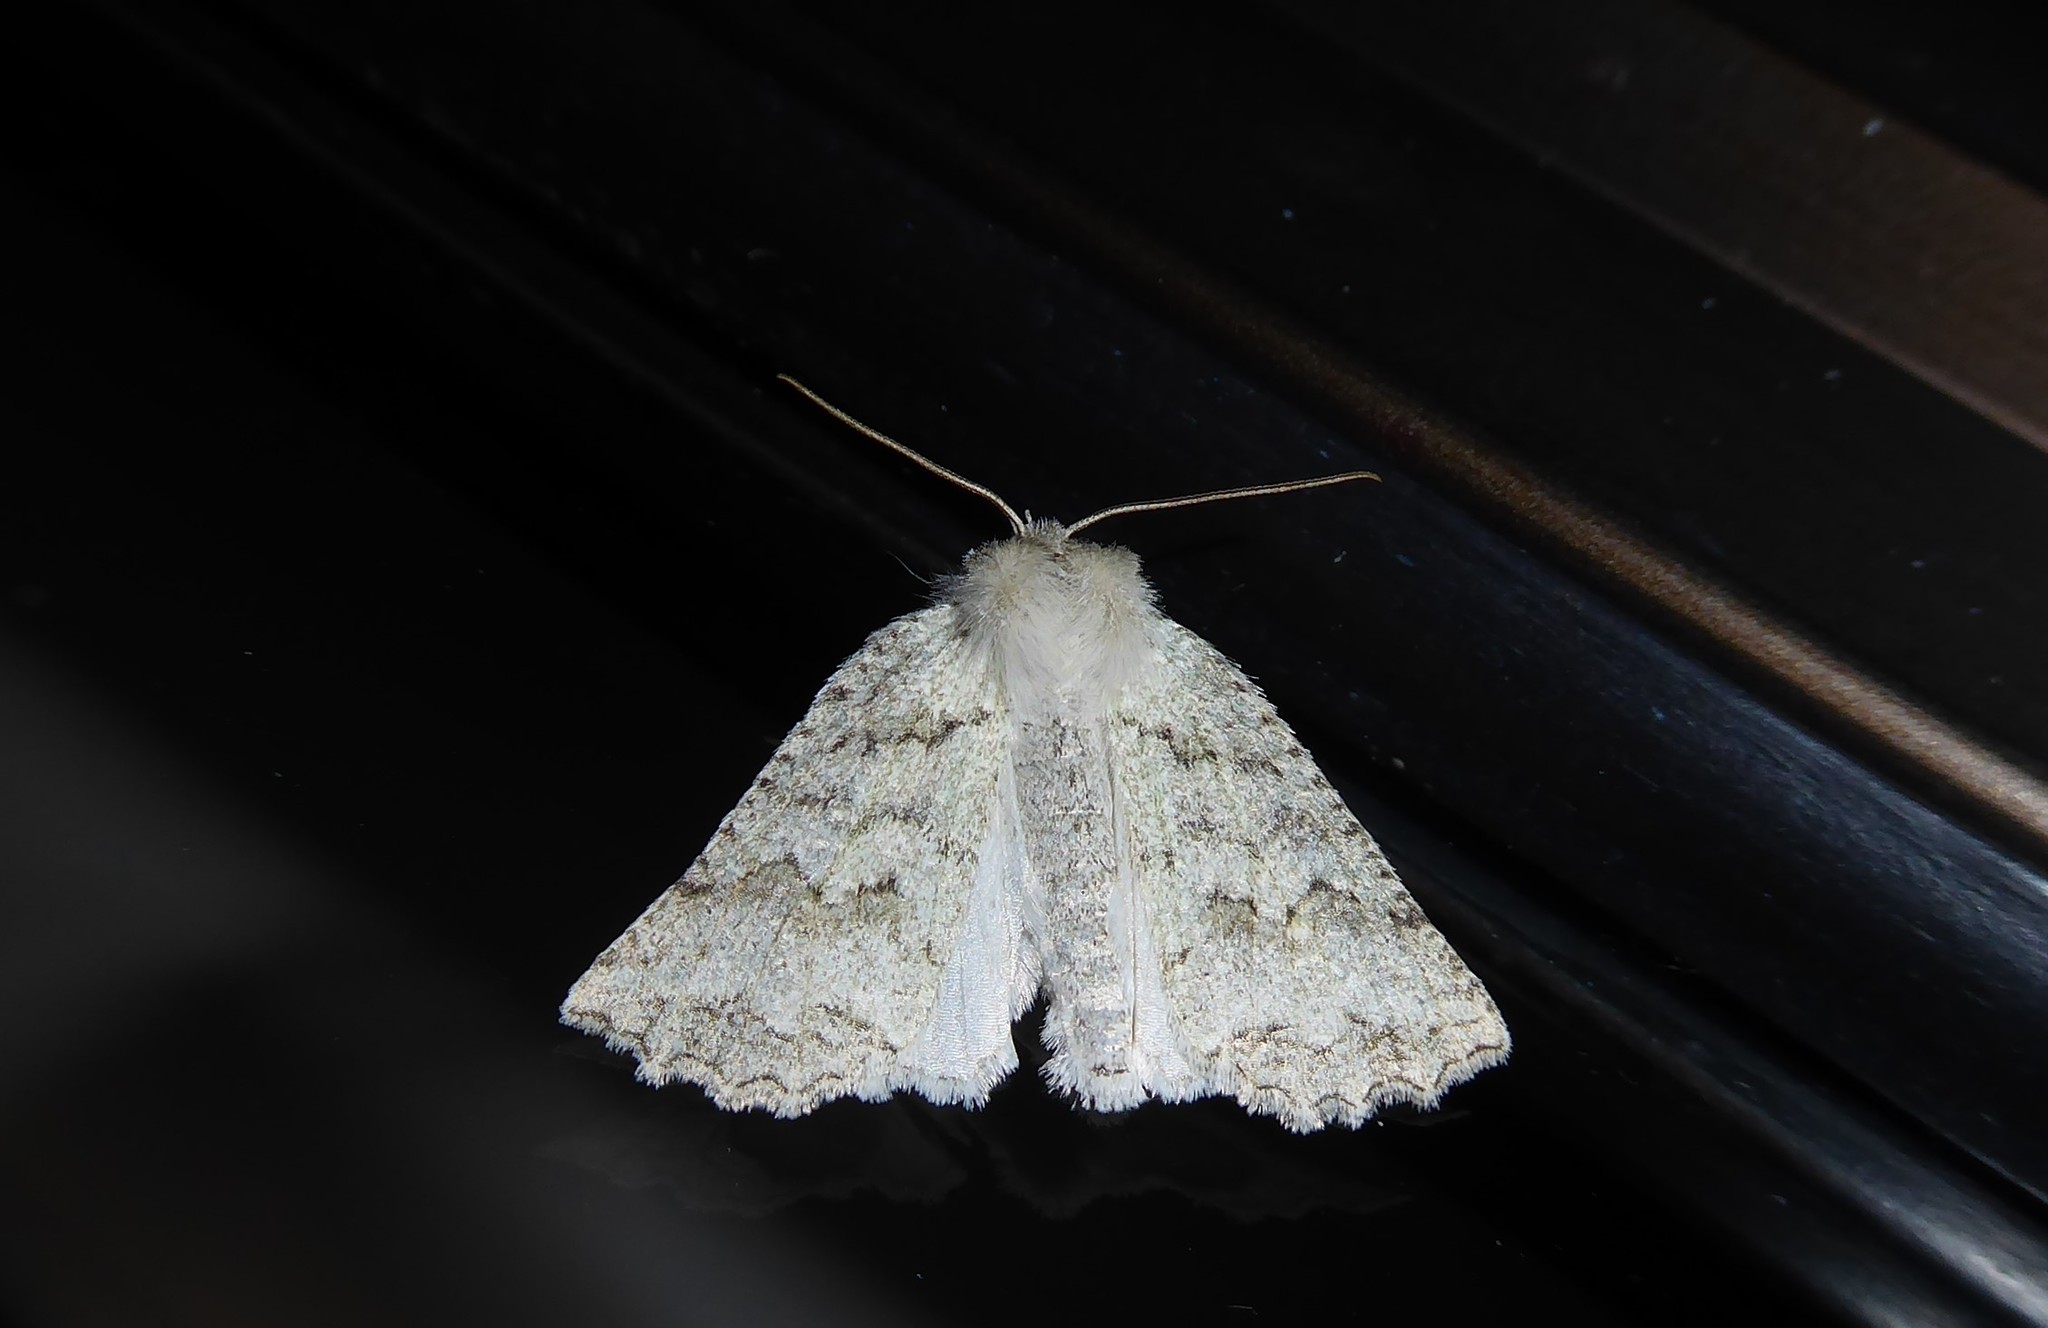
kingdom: Animalia
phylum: Arthropoda
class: Insecta
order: Lepidoptera
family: Geometridae
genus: Declana
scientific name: Declana niveata
